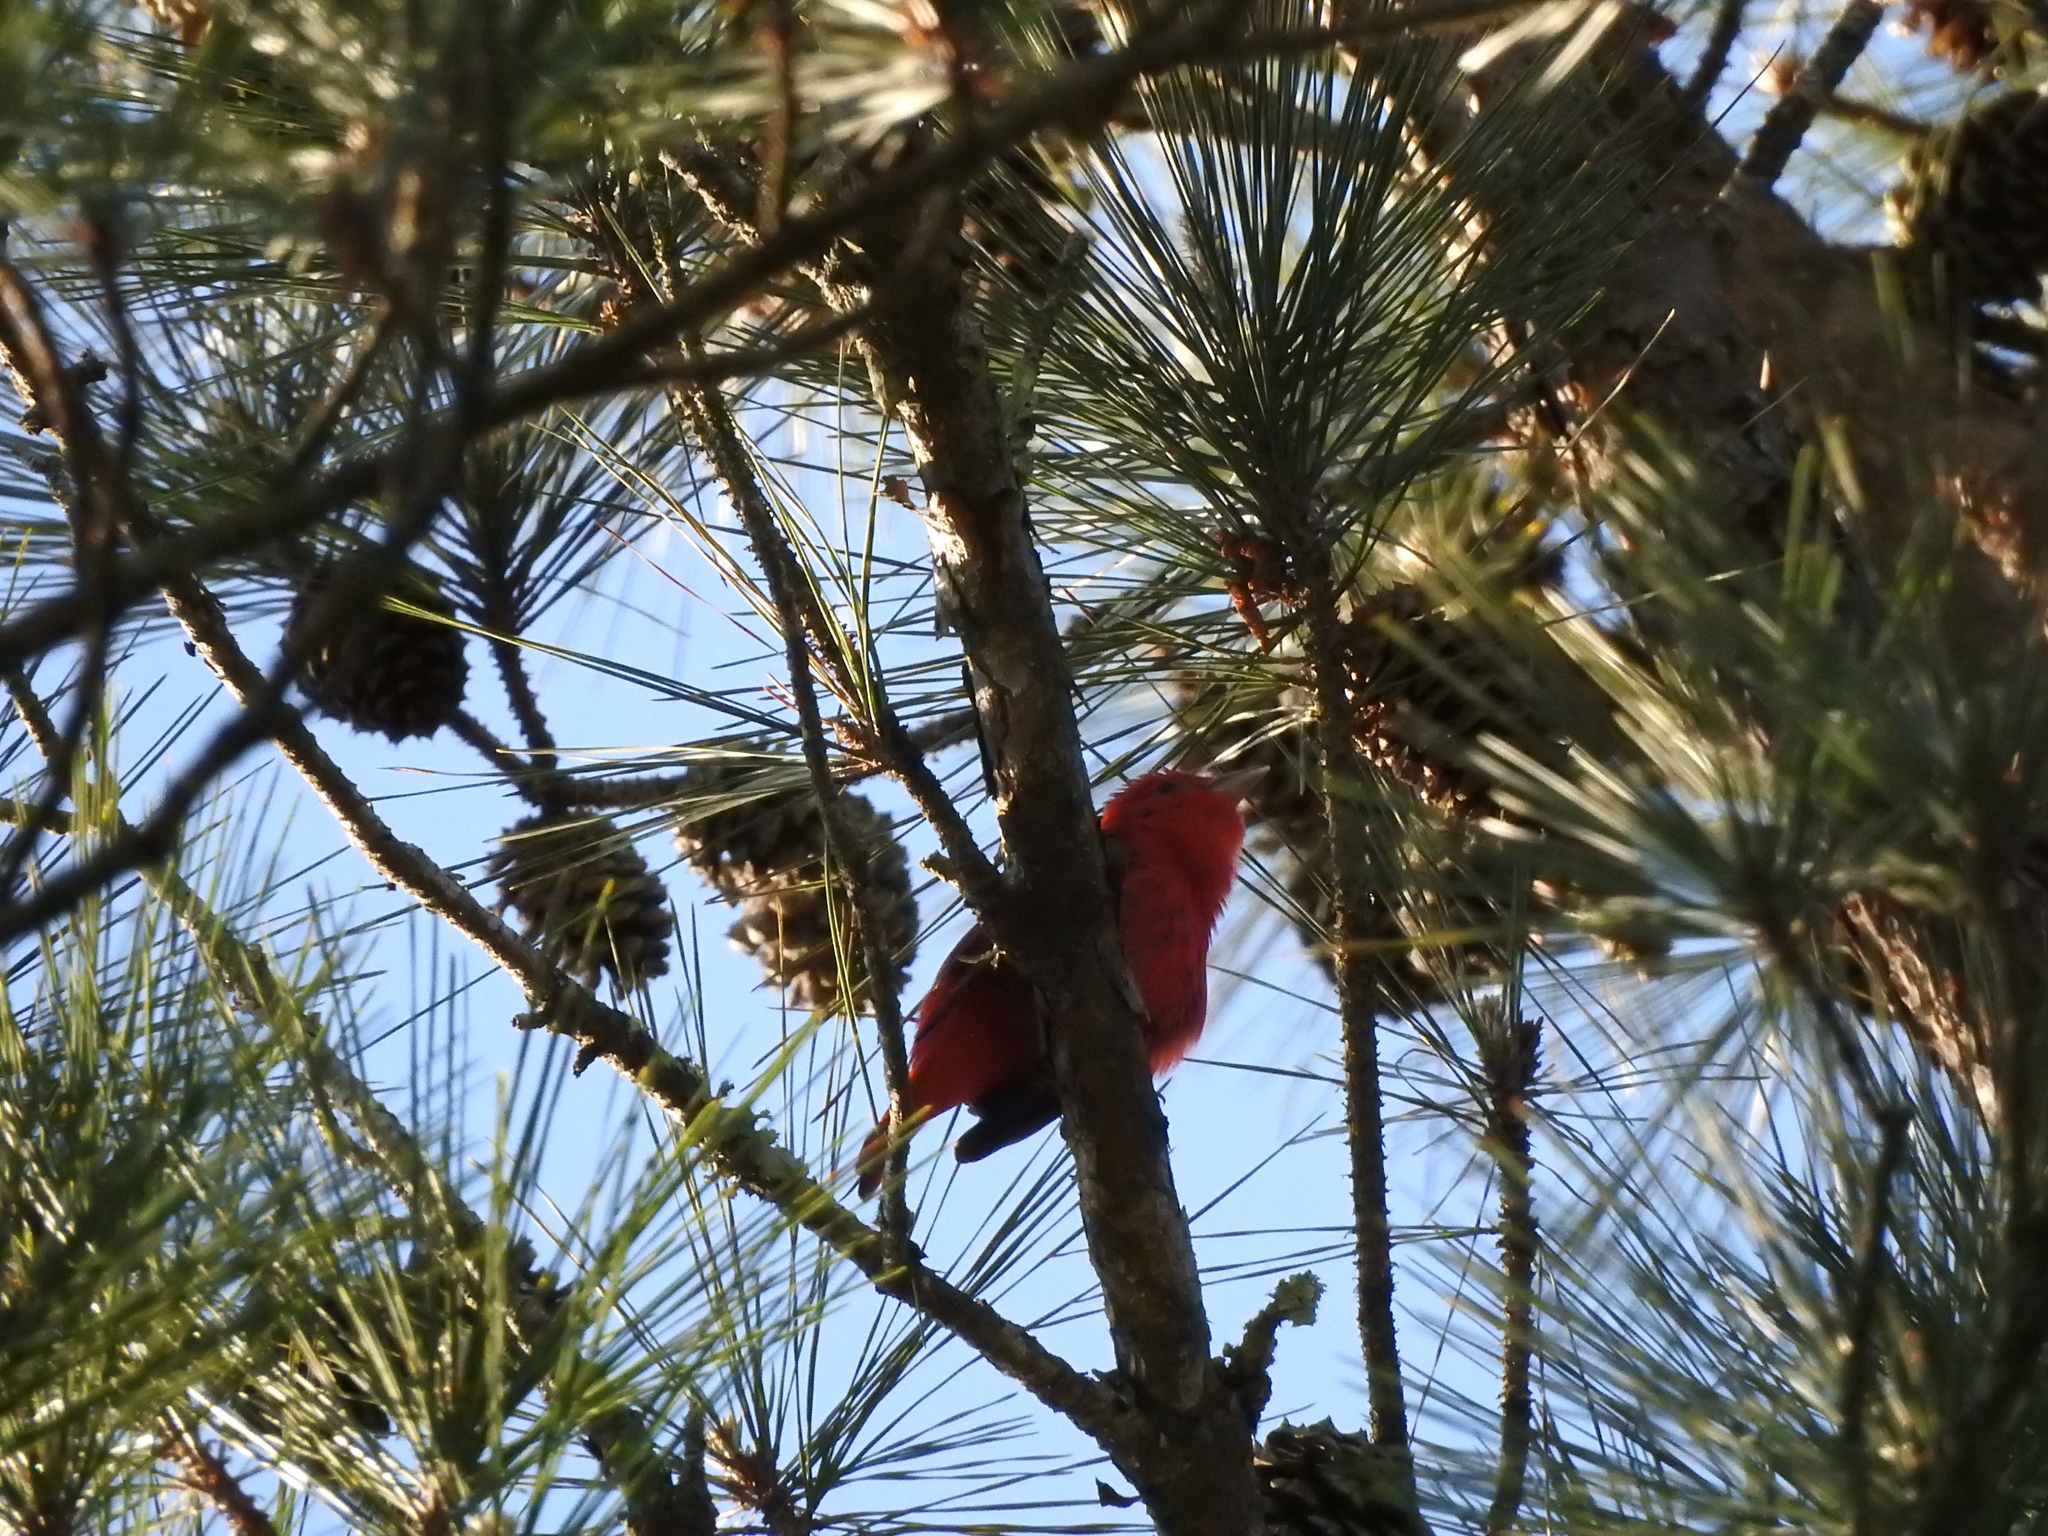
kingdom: Animalia
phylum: Chordata
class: Aves
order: Passeriformes
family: Cardinalidae
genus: Piranga
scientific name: Piranga rubra
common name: Summer tanager
